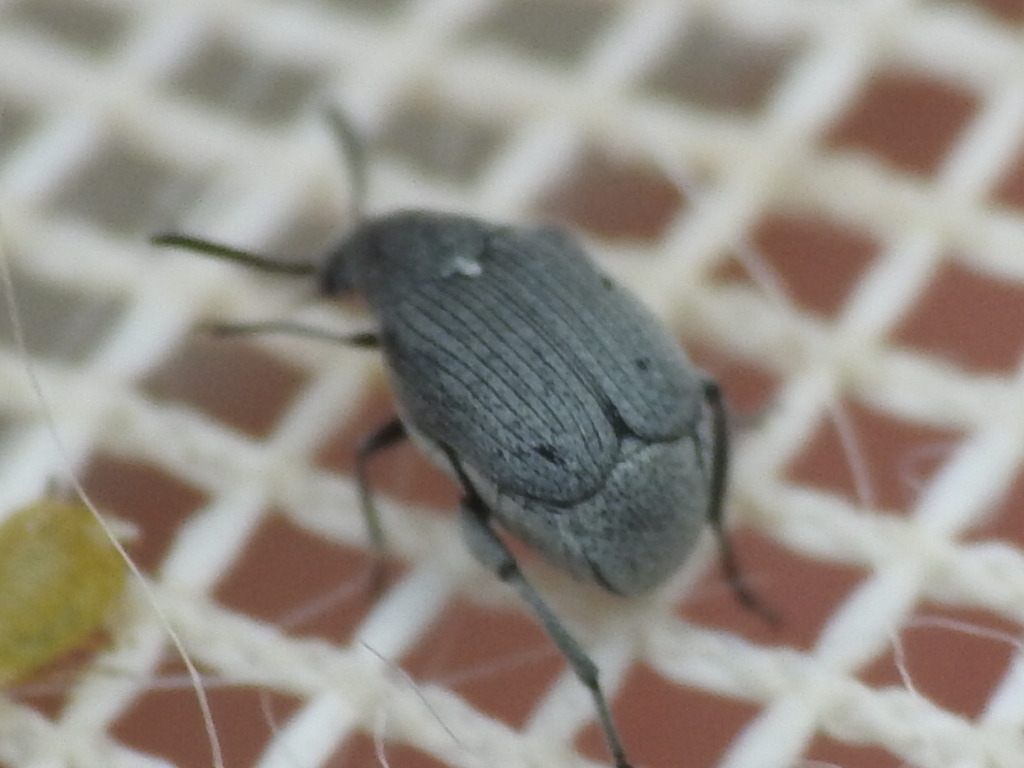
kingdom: Animalia
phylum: Arthropoda
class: Insecta
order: Coleoptera
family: Chrysomelidae
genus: Acanthoscelides
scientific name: Acanthoscelides compressicornis
